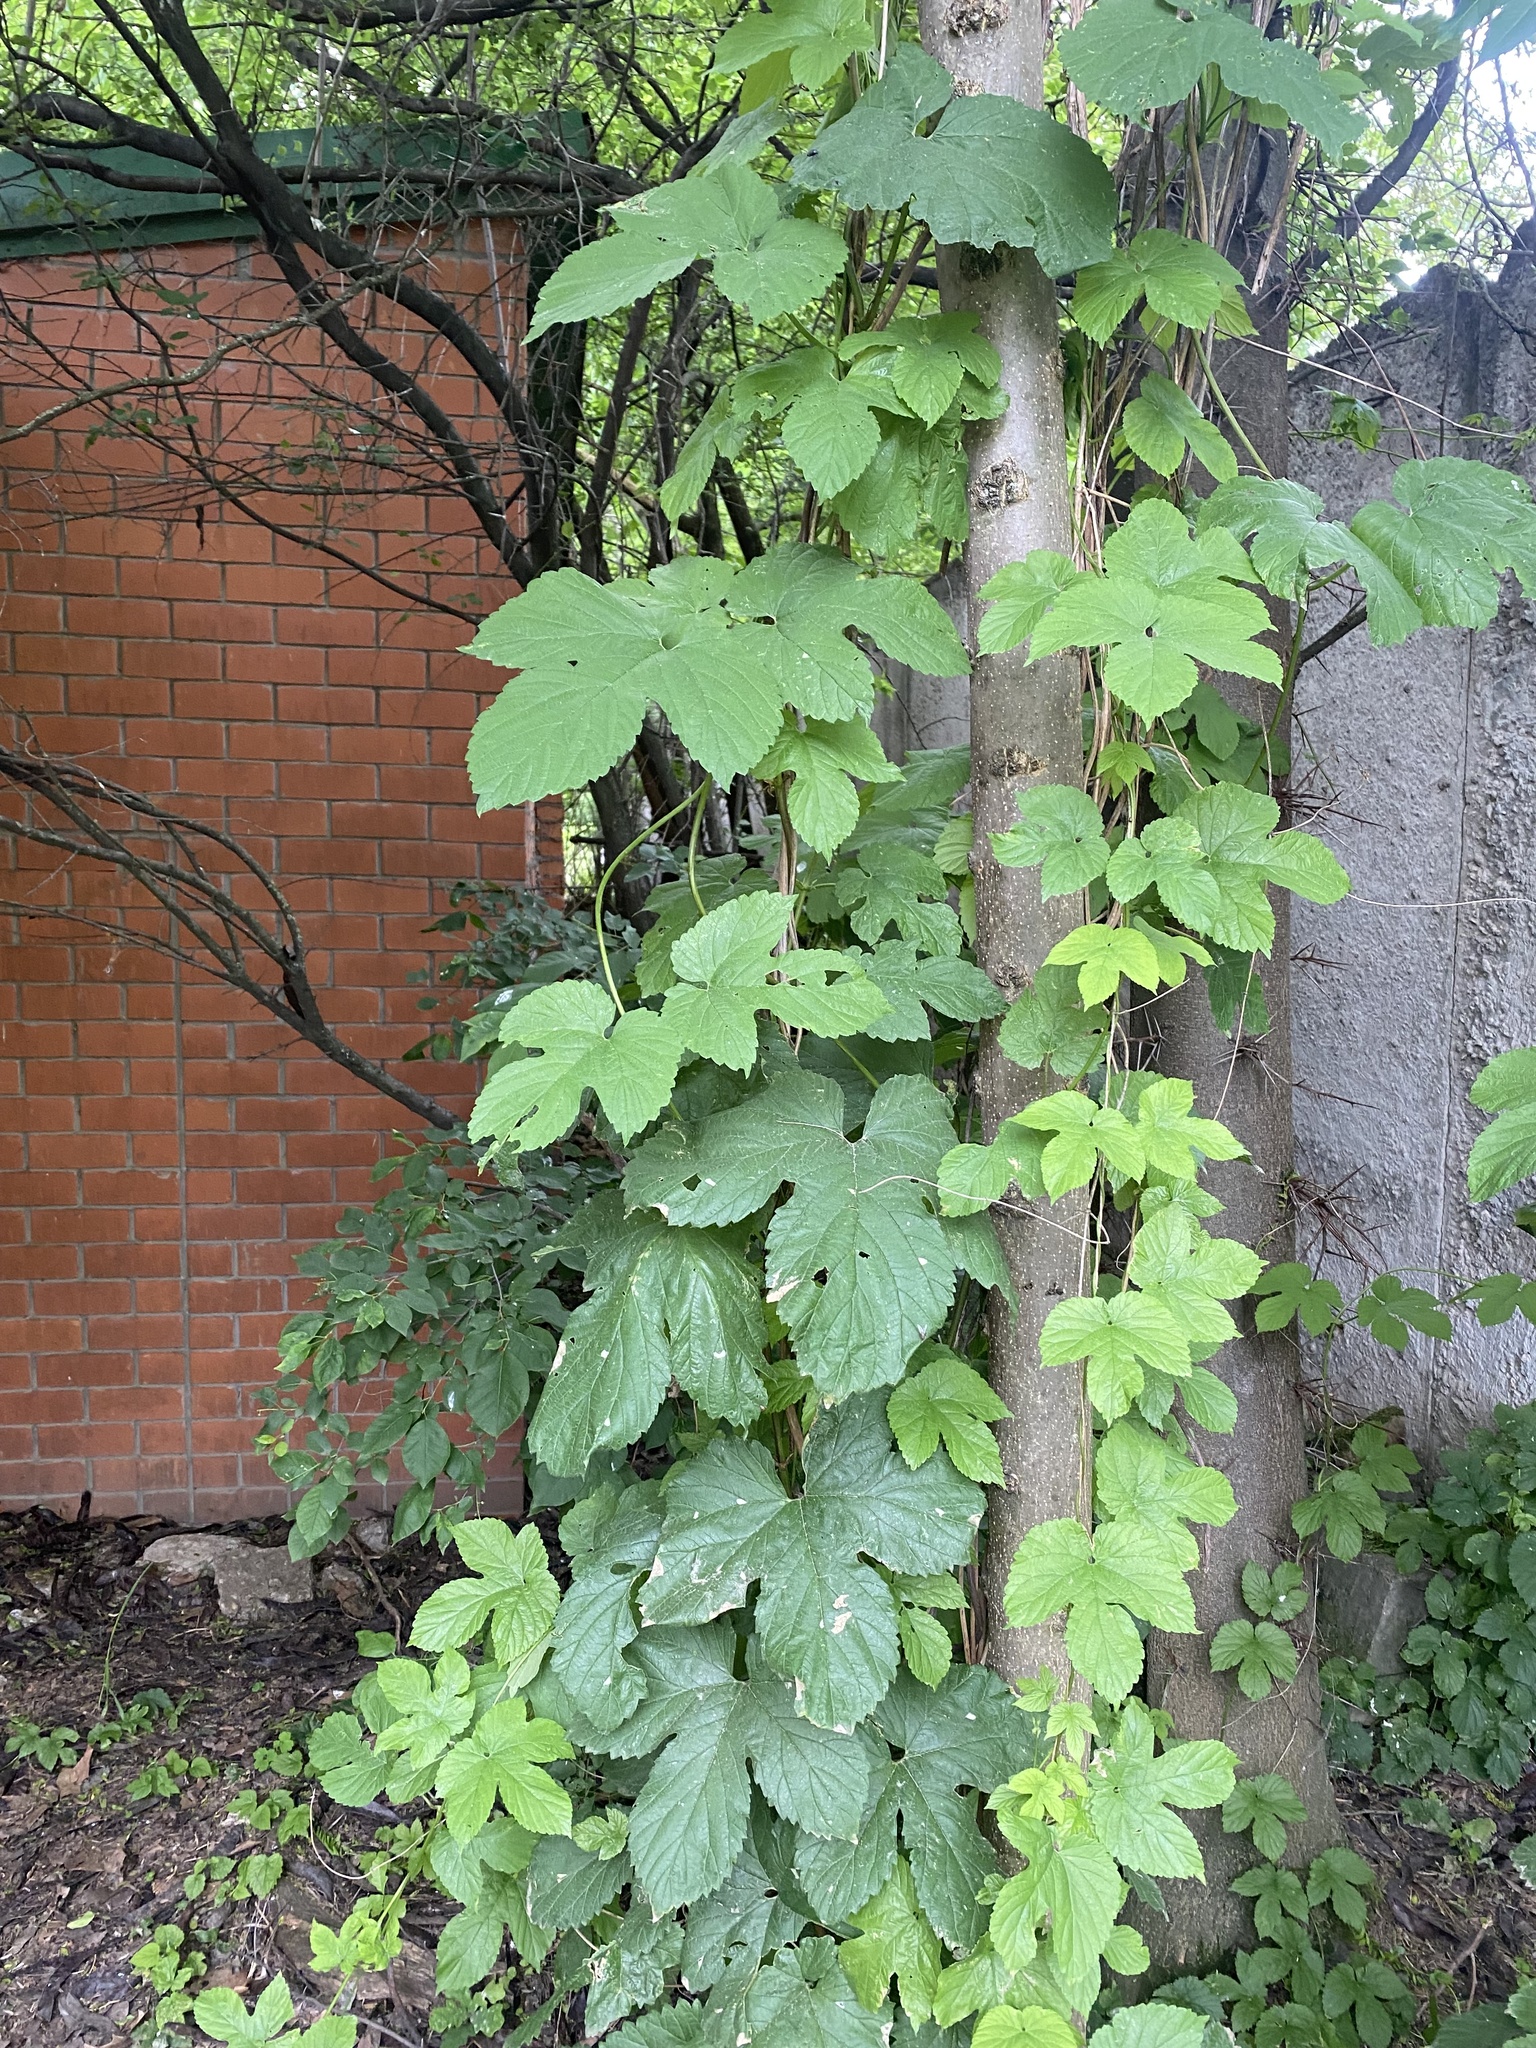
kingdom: Plantae
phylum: Tracheophyta
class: Magnoliopsida
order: Rosales
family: Cannabaceae
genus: Humulus
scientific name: Humulus lupulus
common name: Hop
